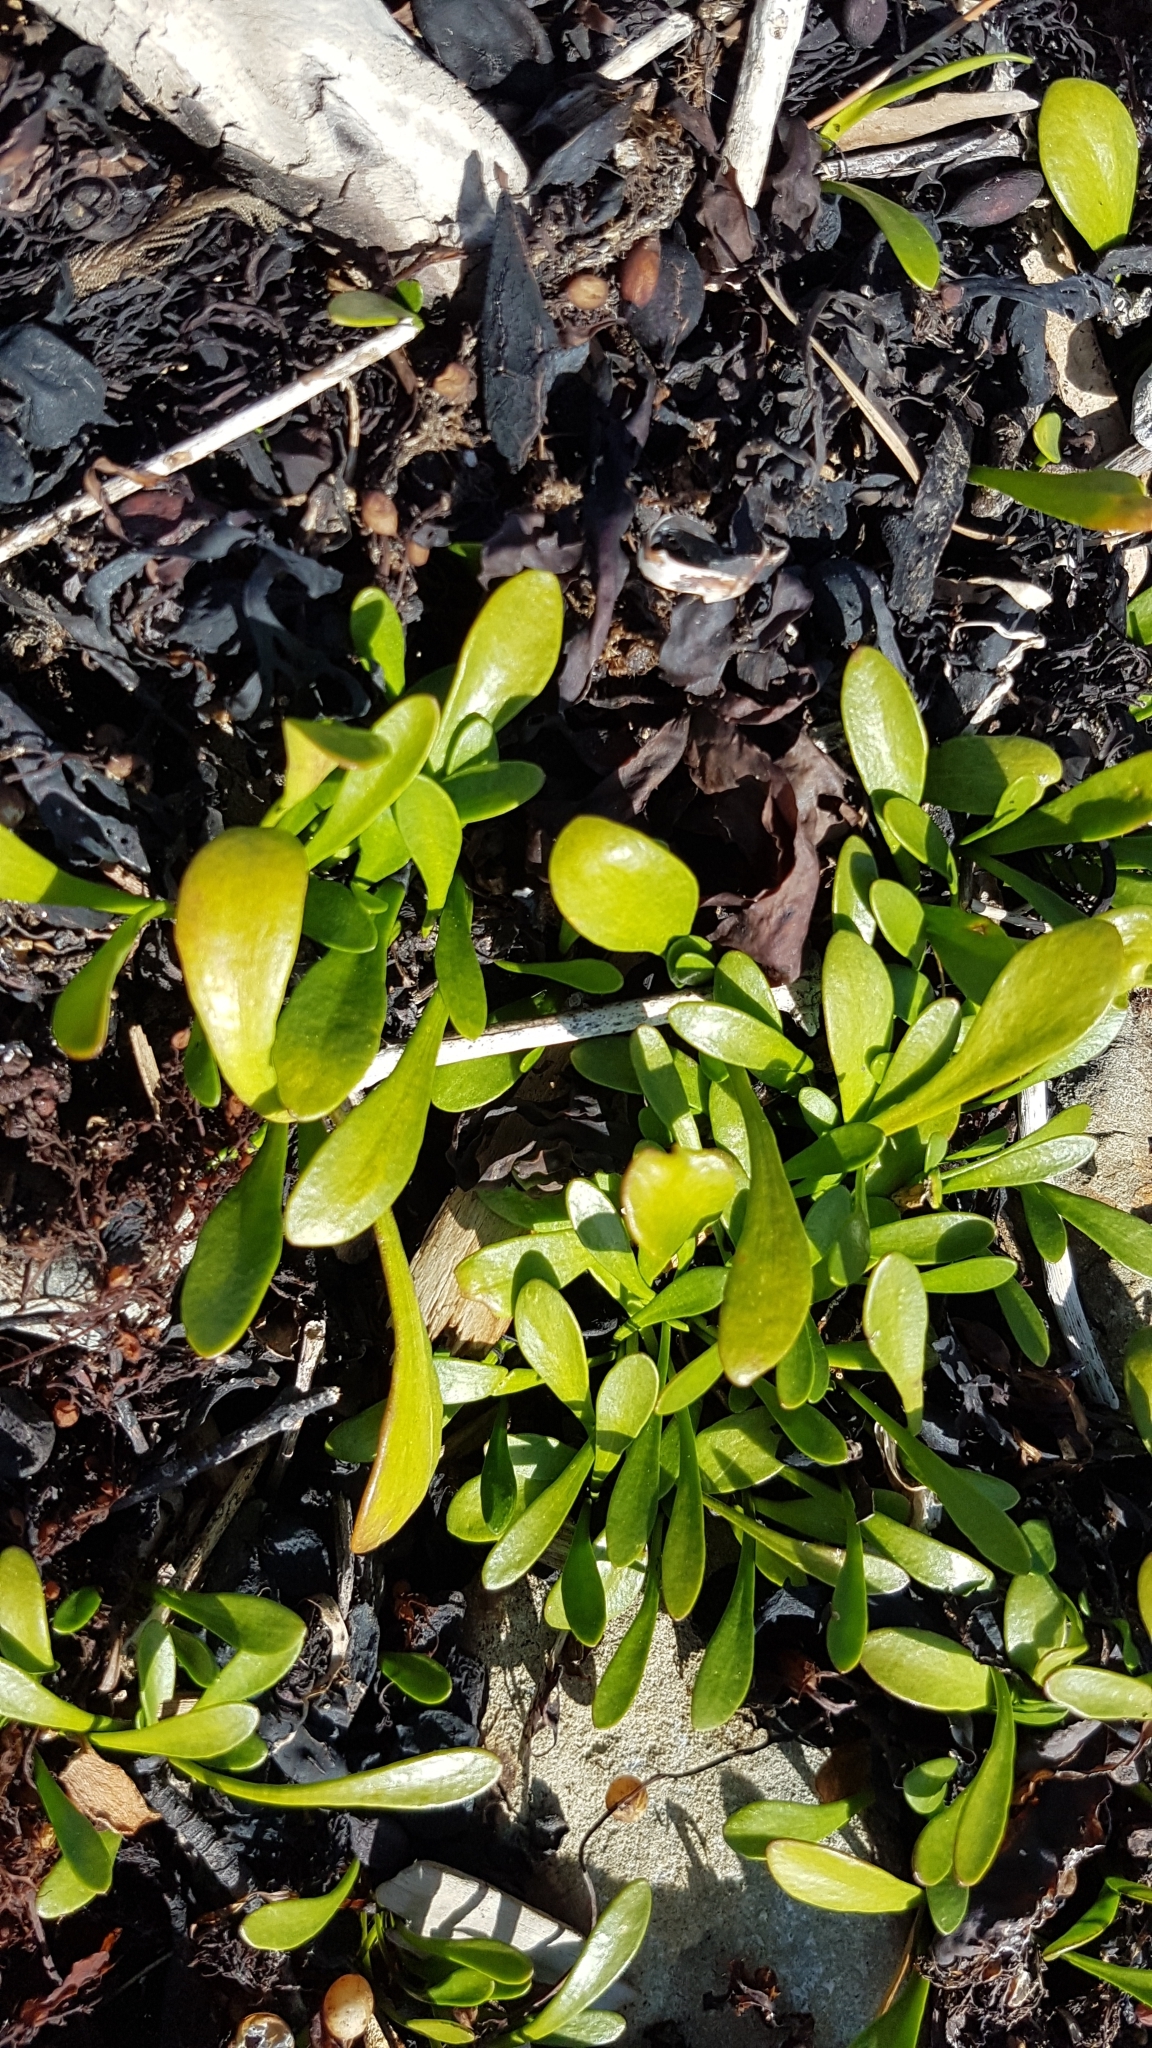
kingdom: Plantae
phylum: Tracheophyta
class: Magnoliopsida
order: Asterales
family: Goodeniaceae
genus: Goodenia
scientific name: Goodenia radicans
